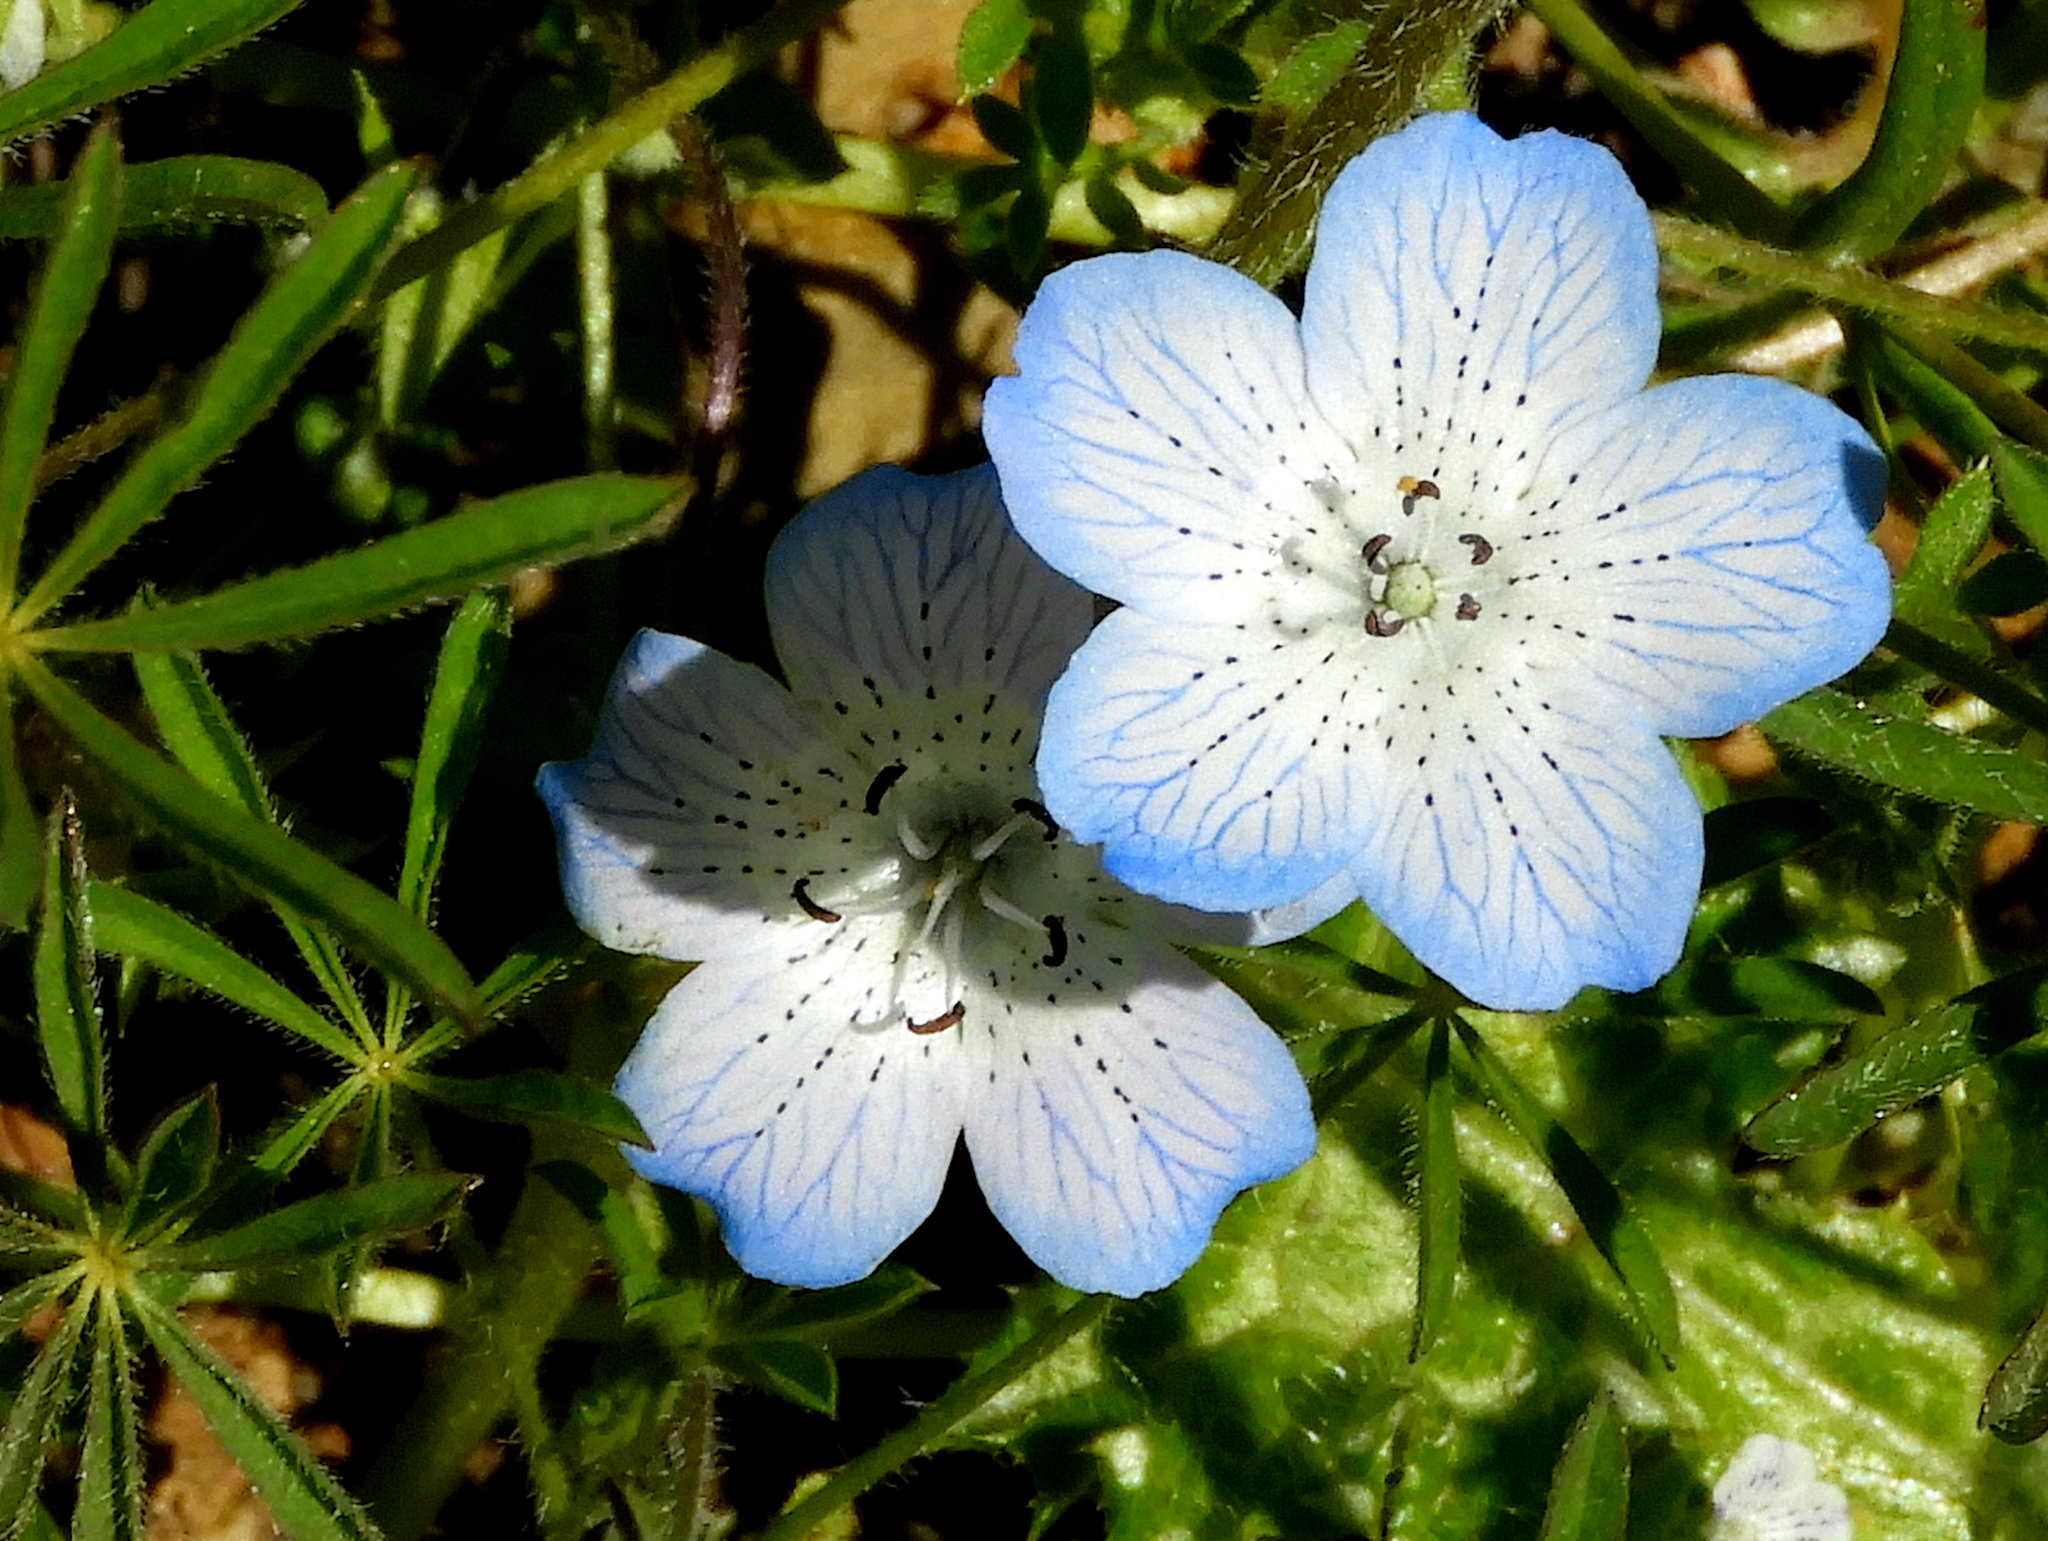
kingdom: Plantae
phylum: Tracheophyta
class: Magnoliopsida
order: Boraginales
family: Hydrophyllaceae
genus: Nemophila
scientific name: Nemophila menziesii
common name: Baby's-blue-eyes
